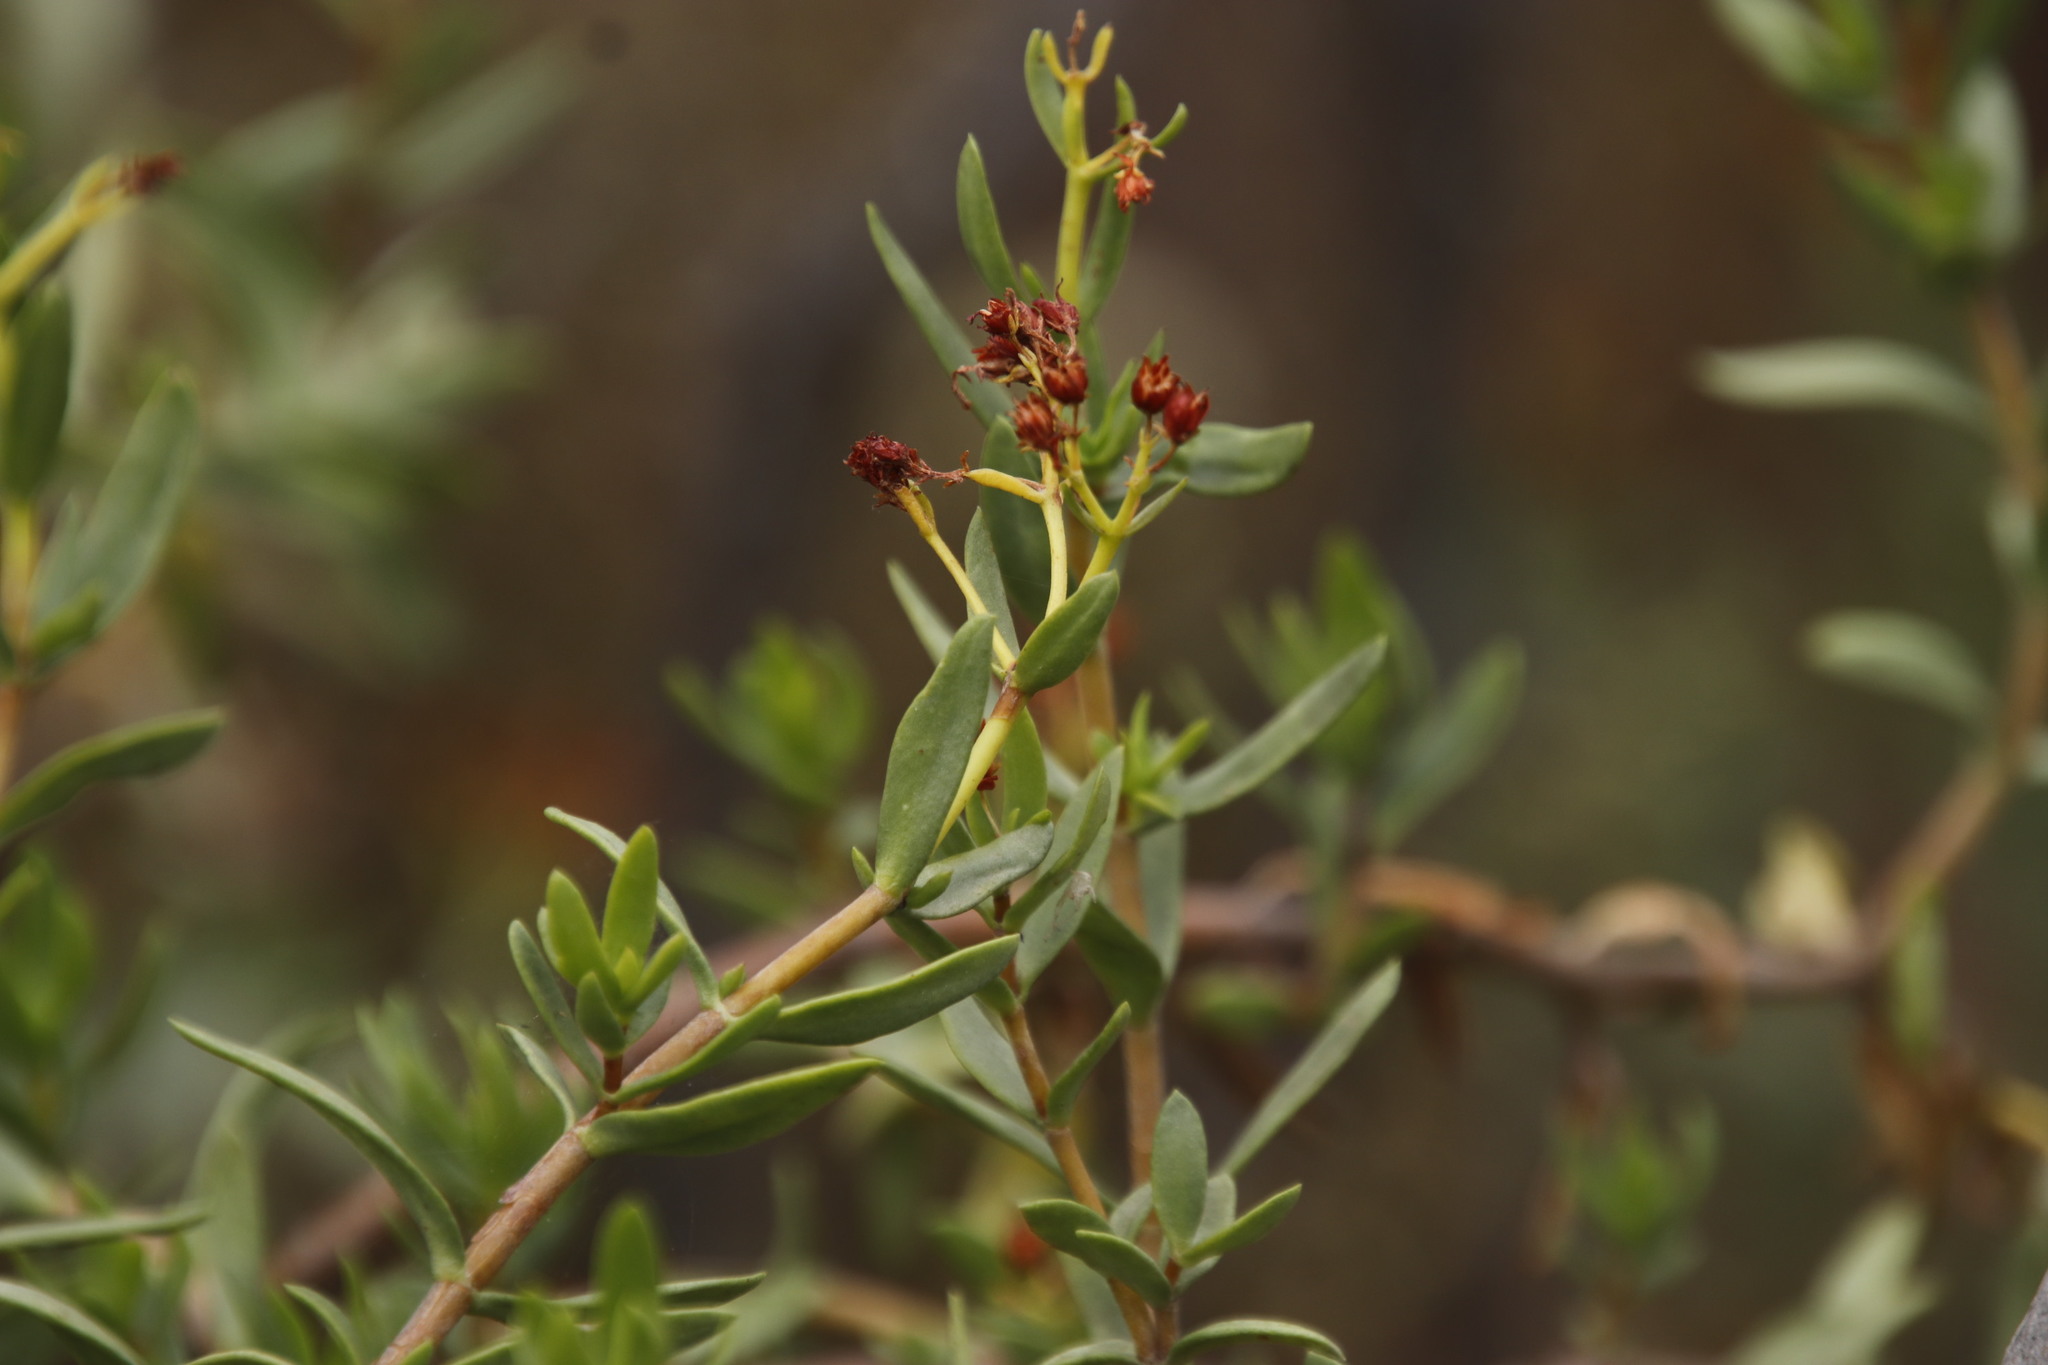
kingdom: Plantae
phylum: Tracheophyta
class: Magnoliopsida
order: Saxifragales
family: Crassulaceae
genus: Crassula
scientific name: Crassula sarcocaulis
